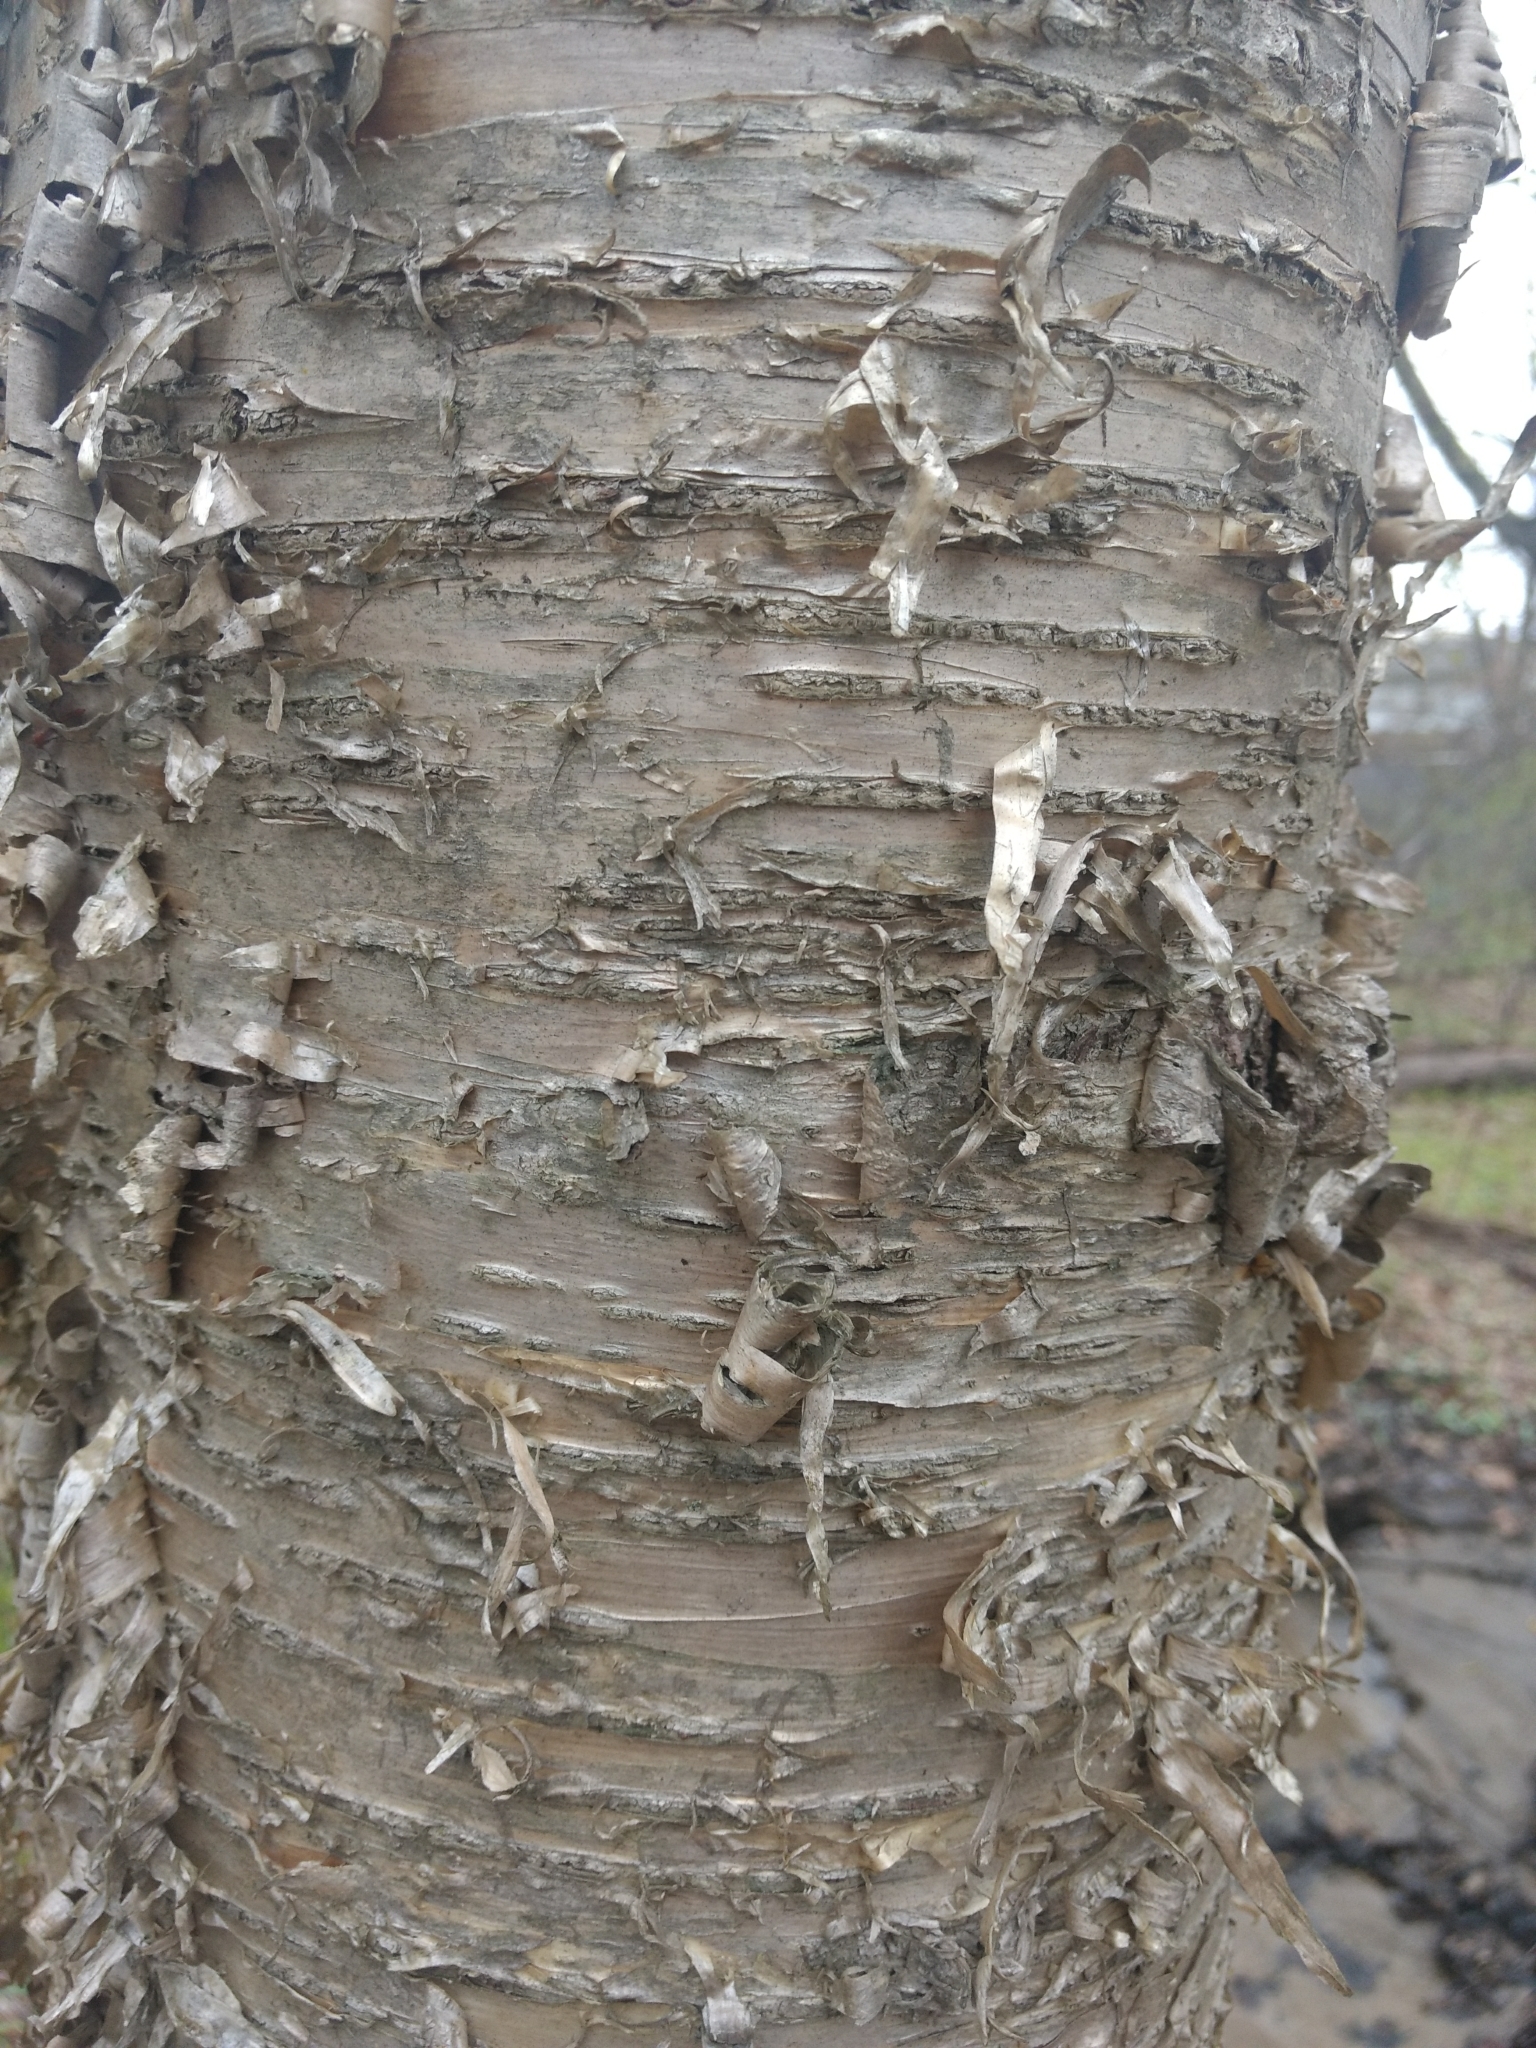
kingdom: Plantae
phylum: Tracheophyta
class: Magnoliopsida
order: Fagales
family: Betulaceae
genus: Betula
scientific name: Betula alleghaniensis
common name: Yellow birch
